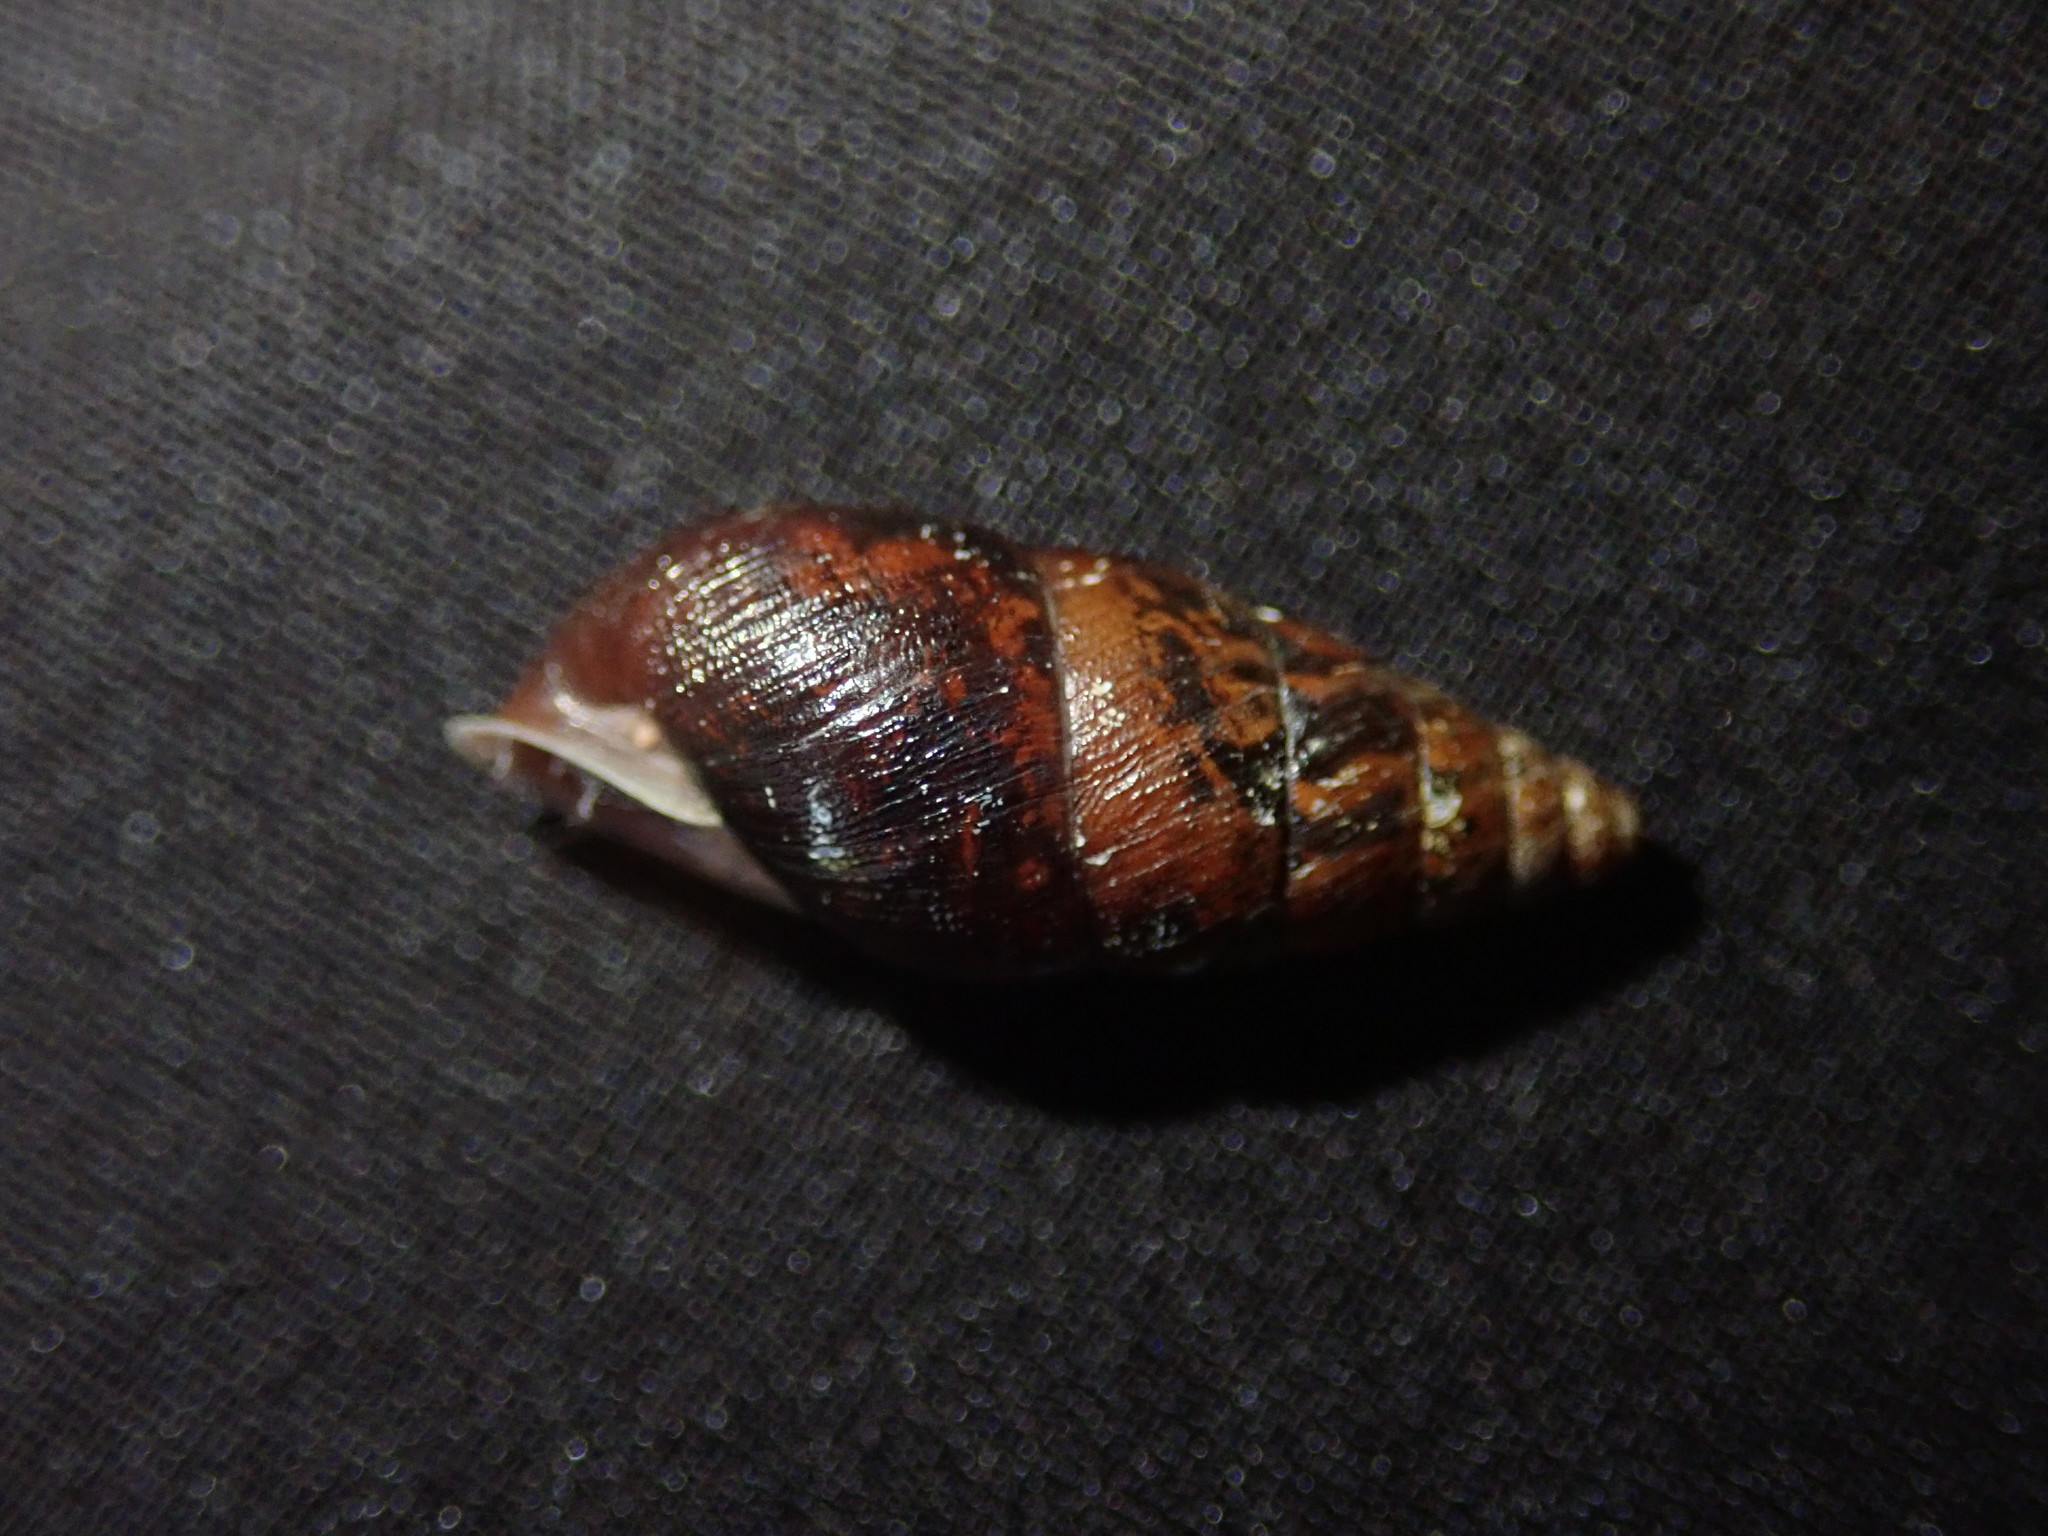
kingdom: Animalia
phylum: Mollusca
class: Gastropoda
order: Stylommatophora
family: Enidae
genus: Ena
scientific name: Ena montana
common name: Mountain bulin
